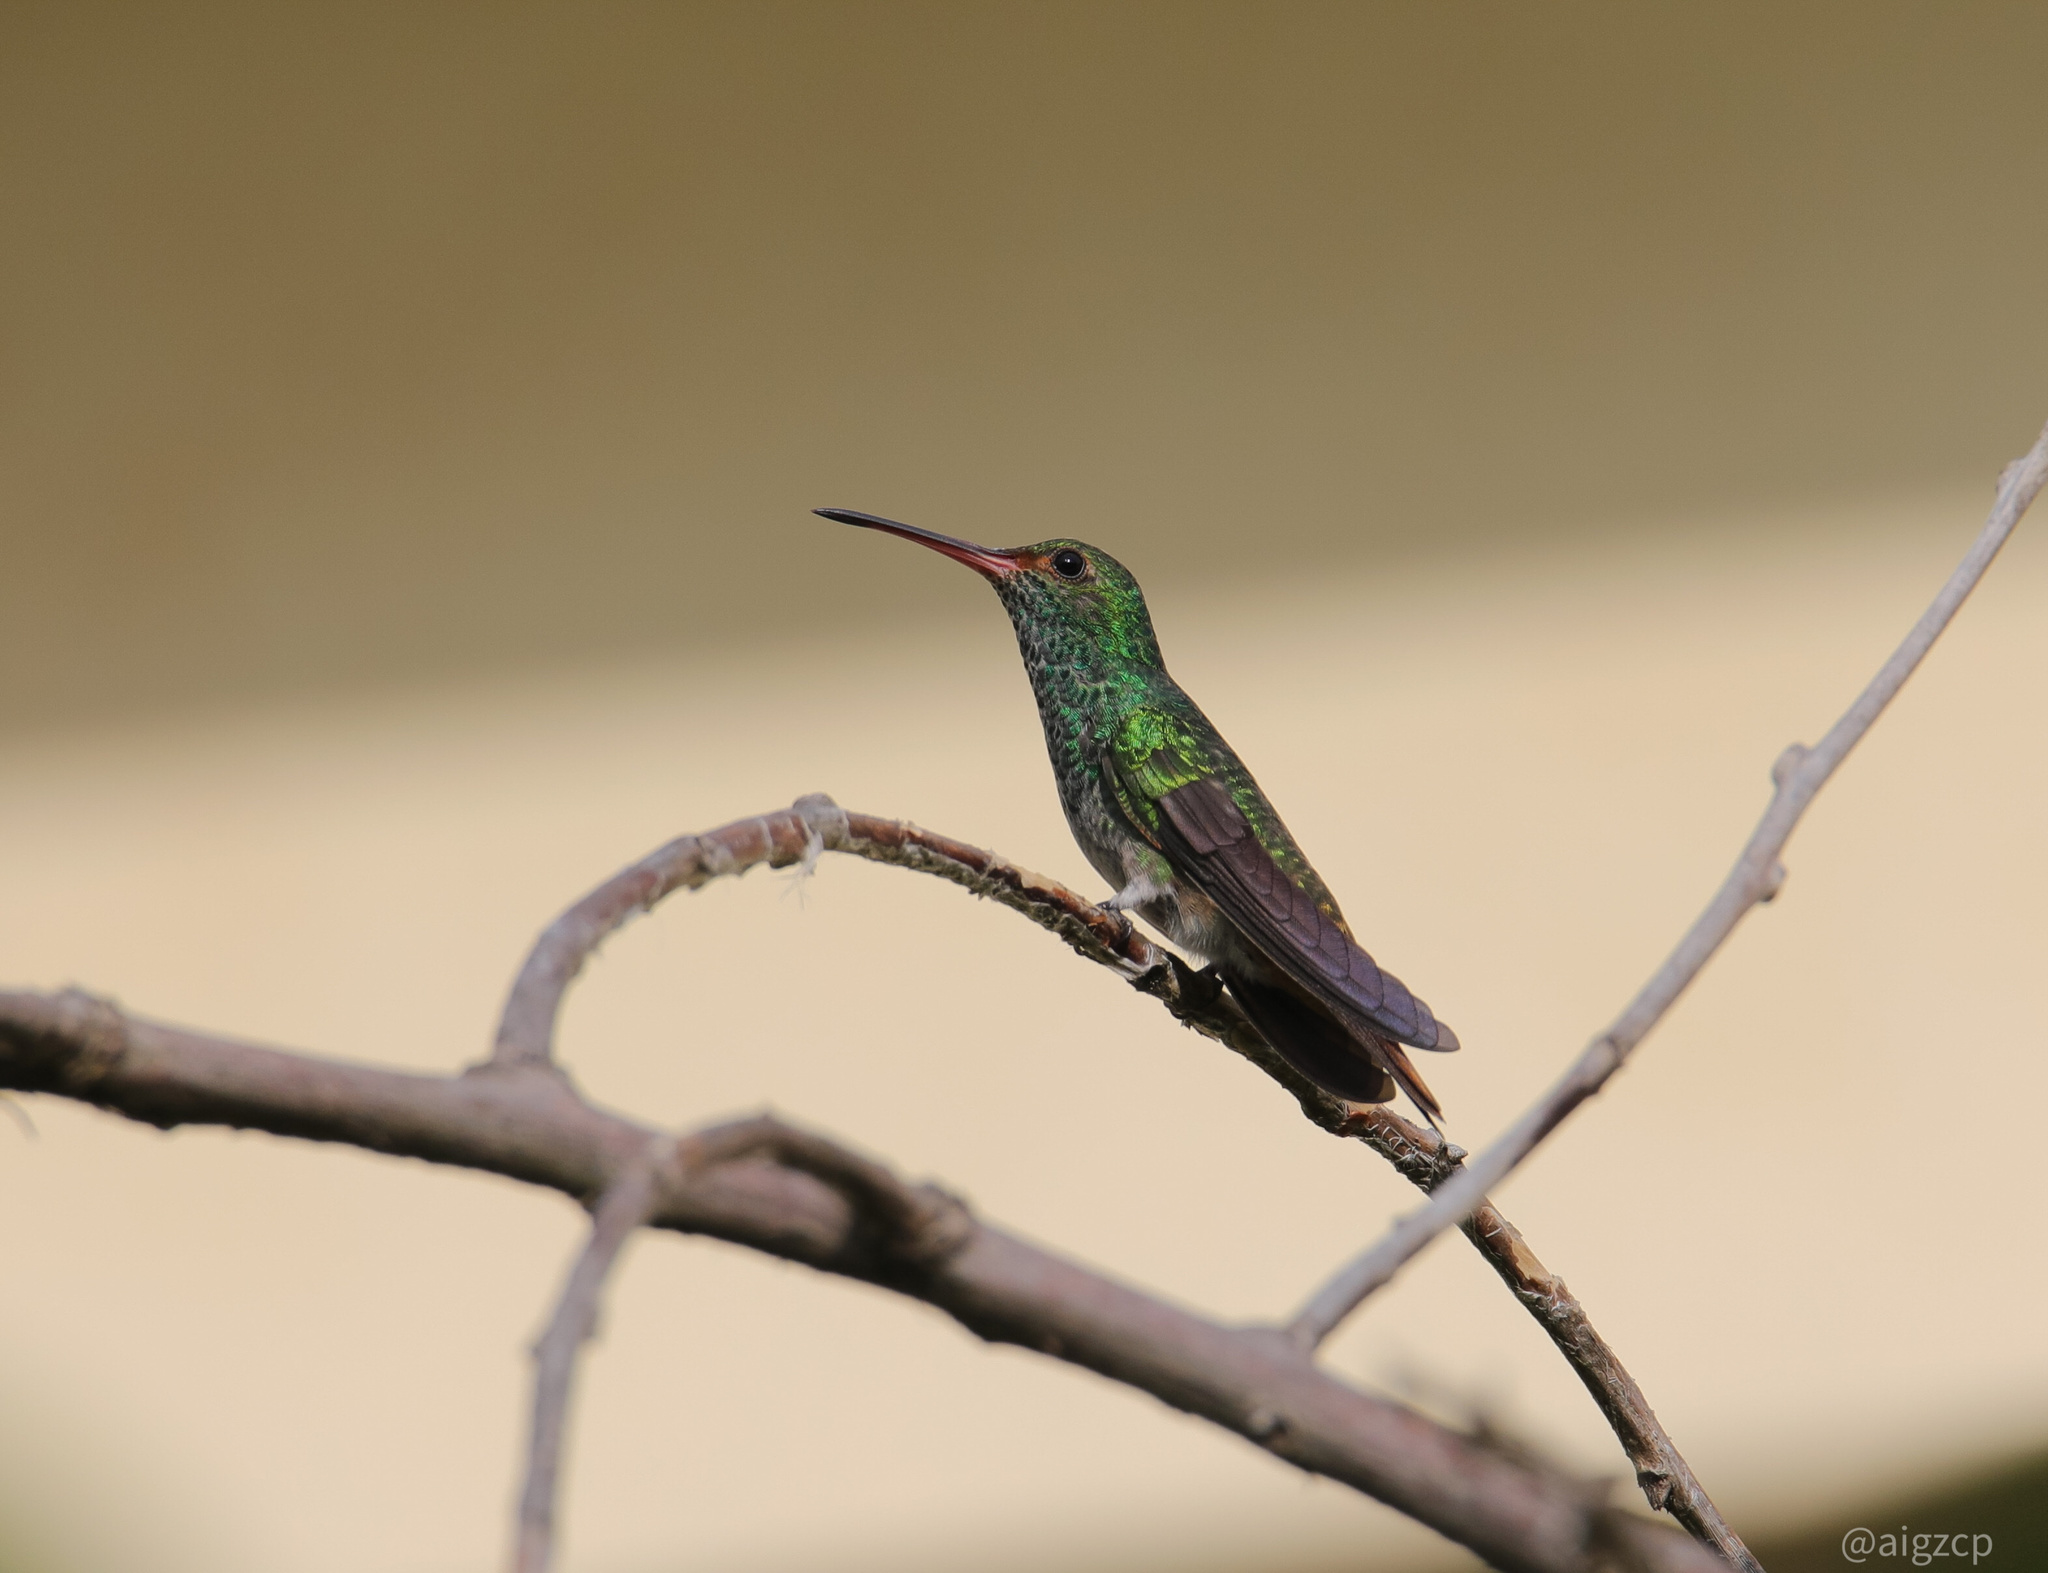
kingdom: Animalia
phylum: Chordata
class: Aves
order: Apodiformes
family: Trochilidae
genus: Amazilia
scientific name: Amazilia tzacatl
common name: Rufous-tailed hummingbird
